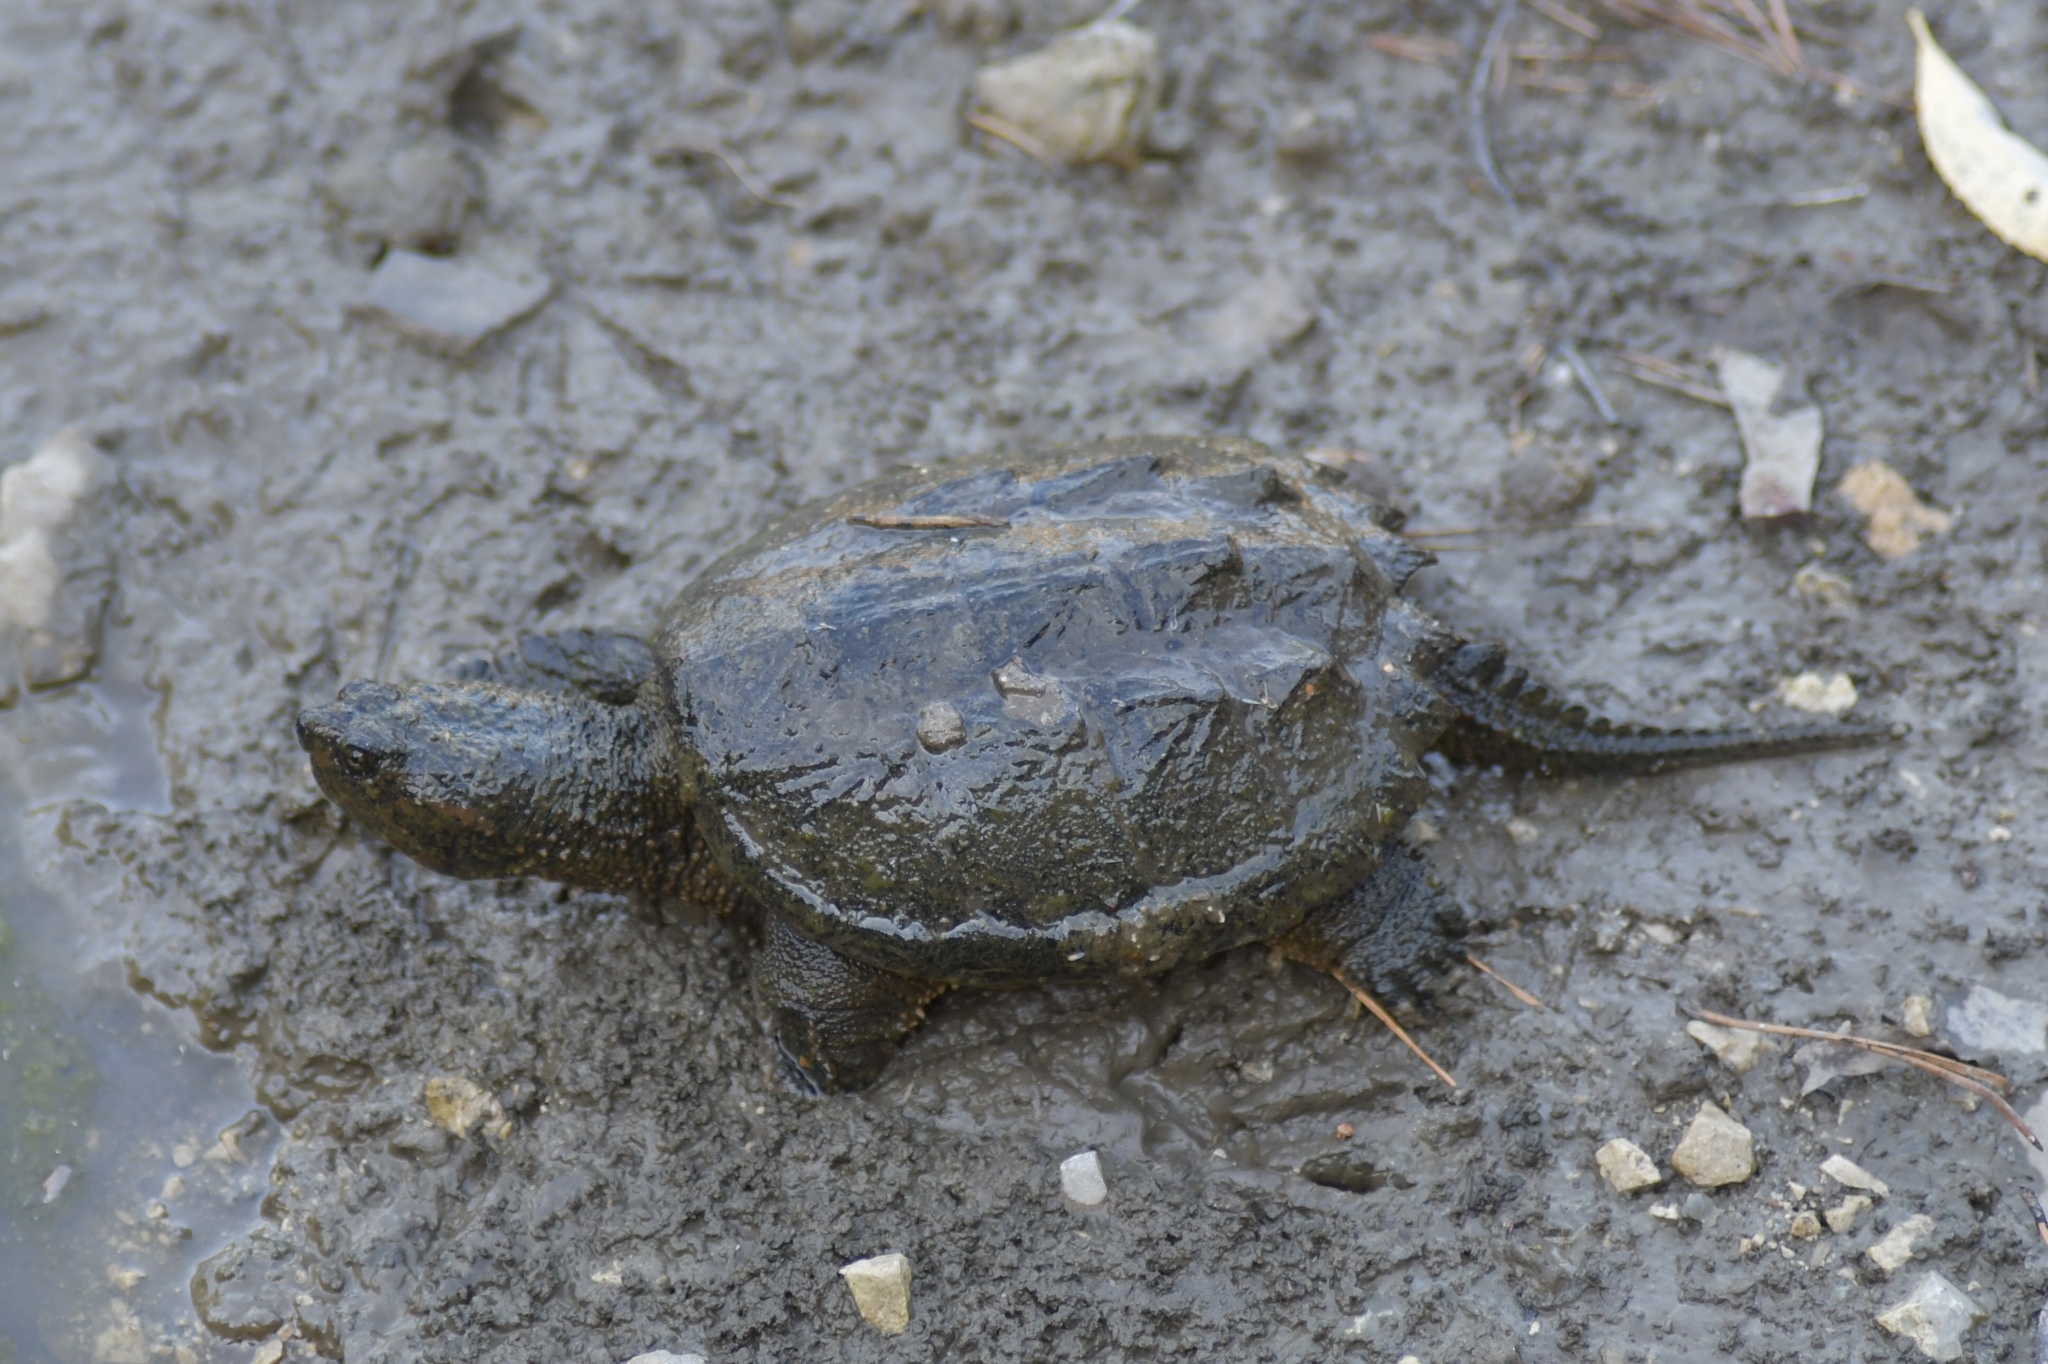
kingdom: Animalia
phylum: Chordata
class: Testudines
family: Chelydridae
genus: Chelydra
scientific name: Chelydra serpentina
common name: Common snapping turtle
